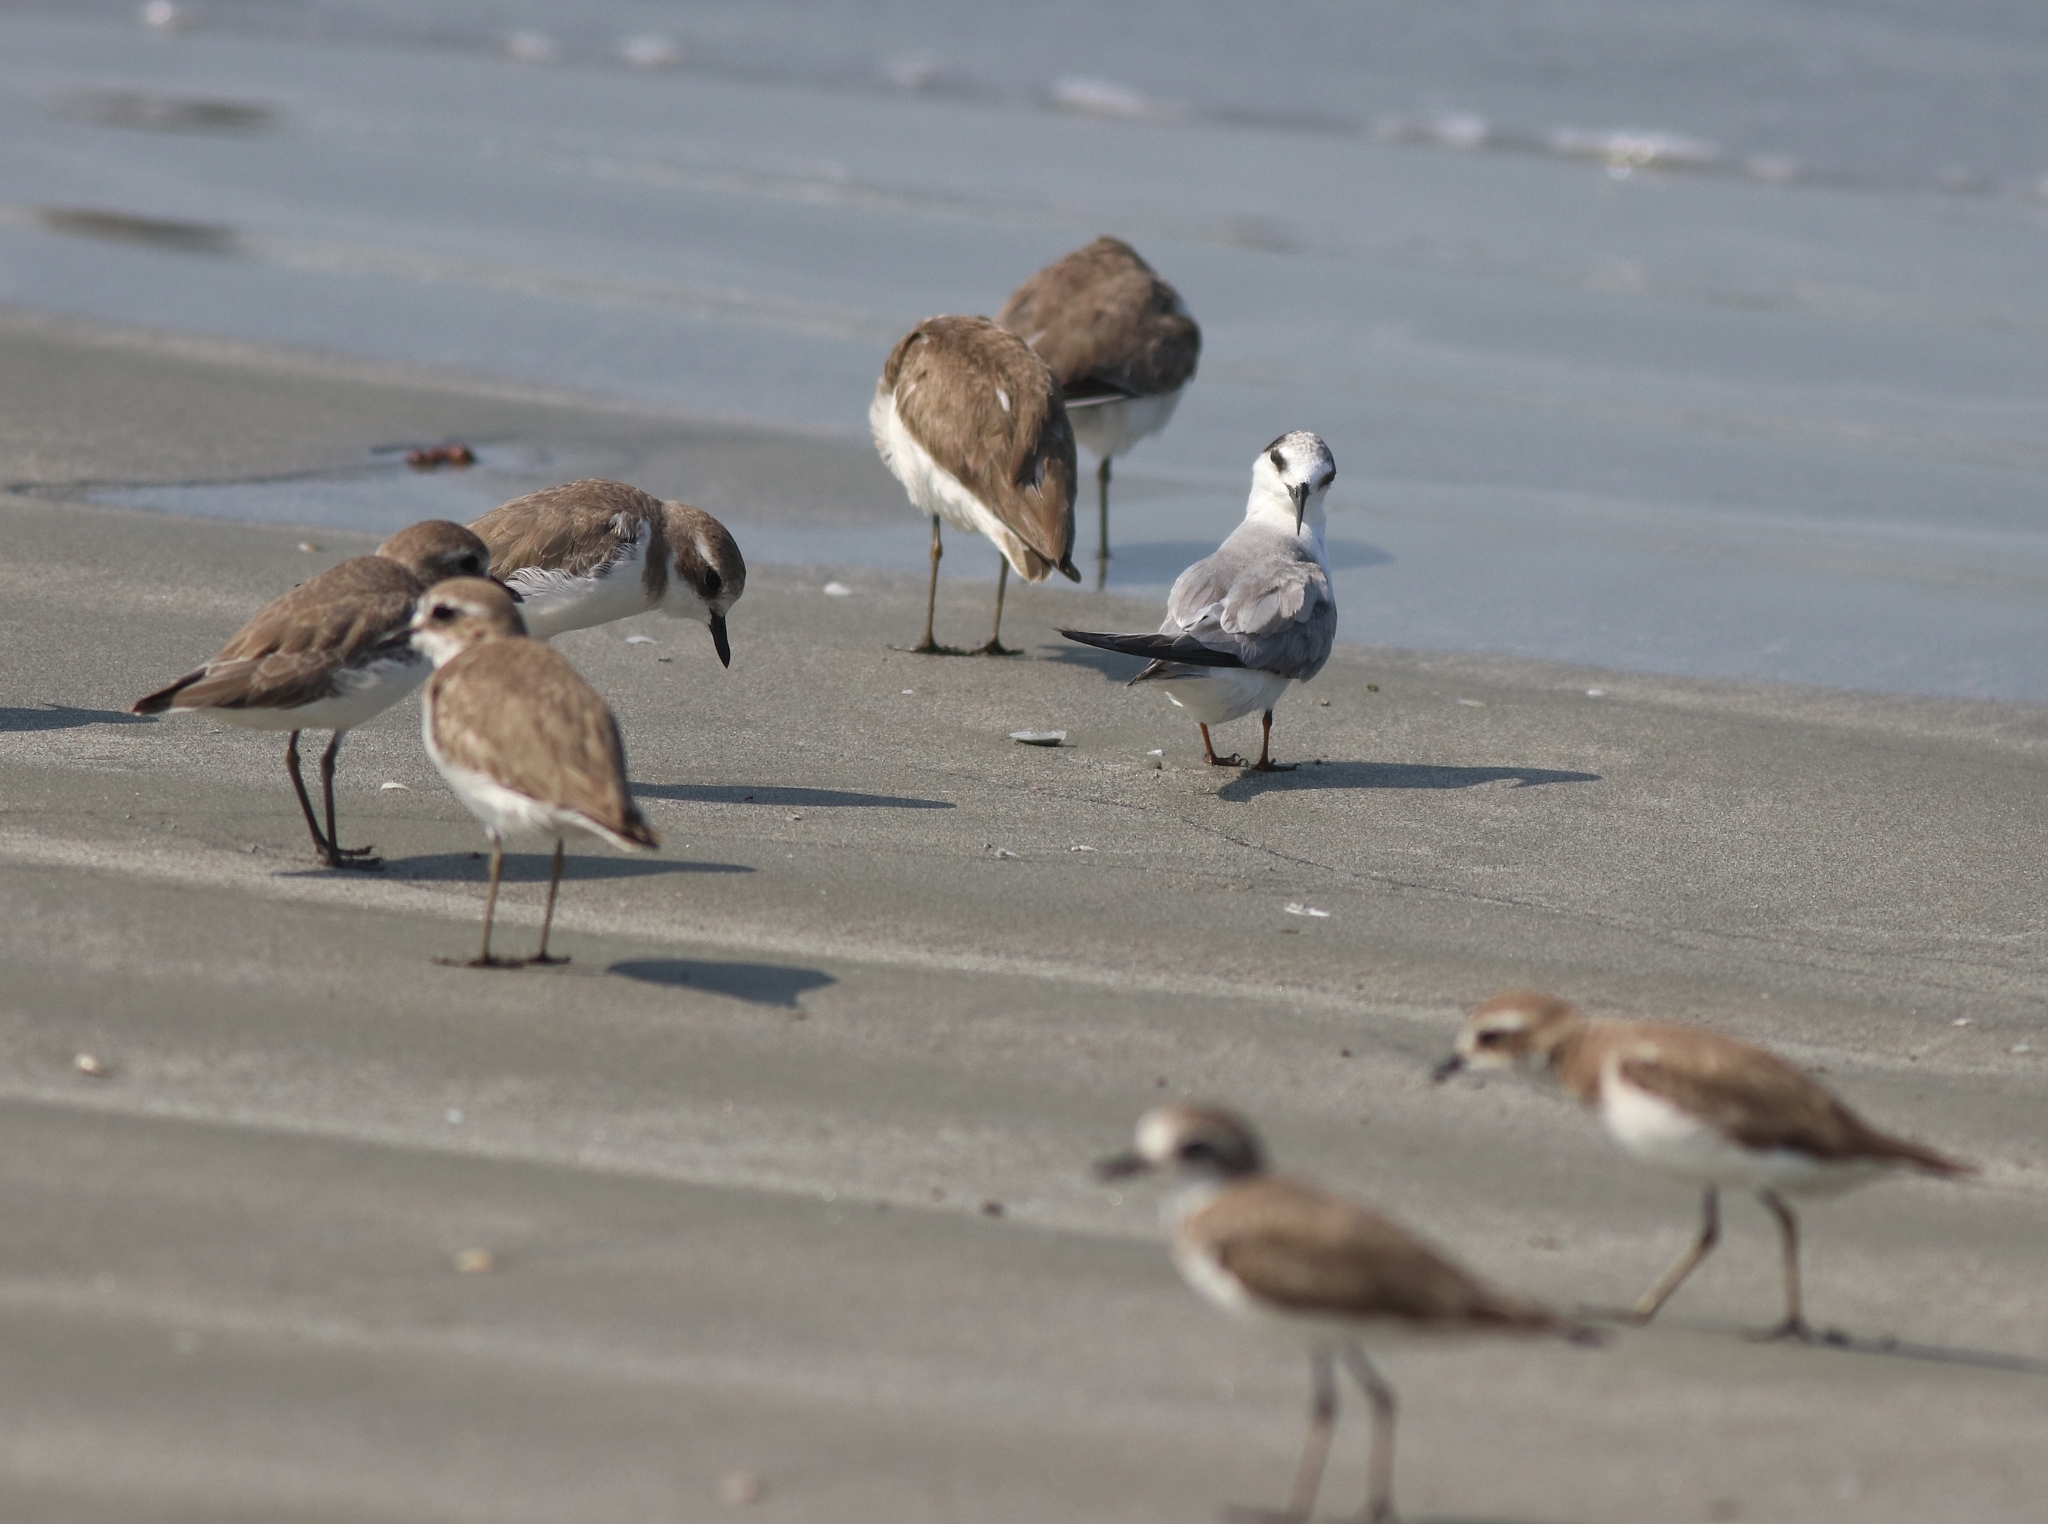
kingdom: Animalia
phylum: Chordata
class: Aves
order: Charadriiformes
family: Charadriidae
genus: Anarhynchus
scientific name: Anarhynchus
